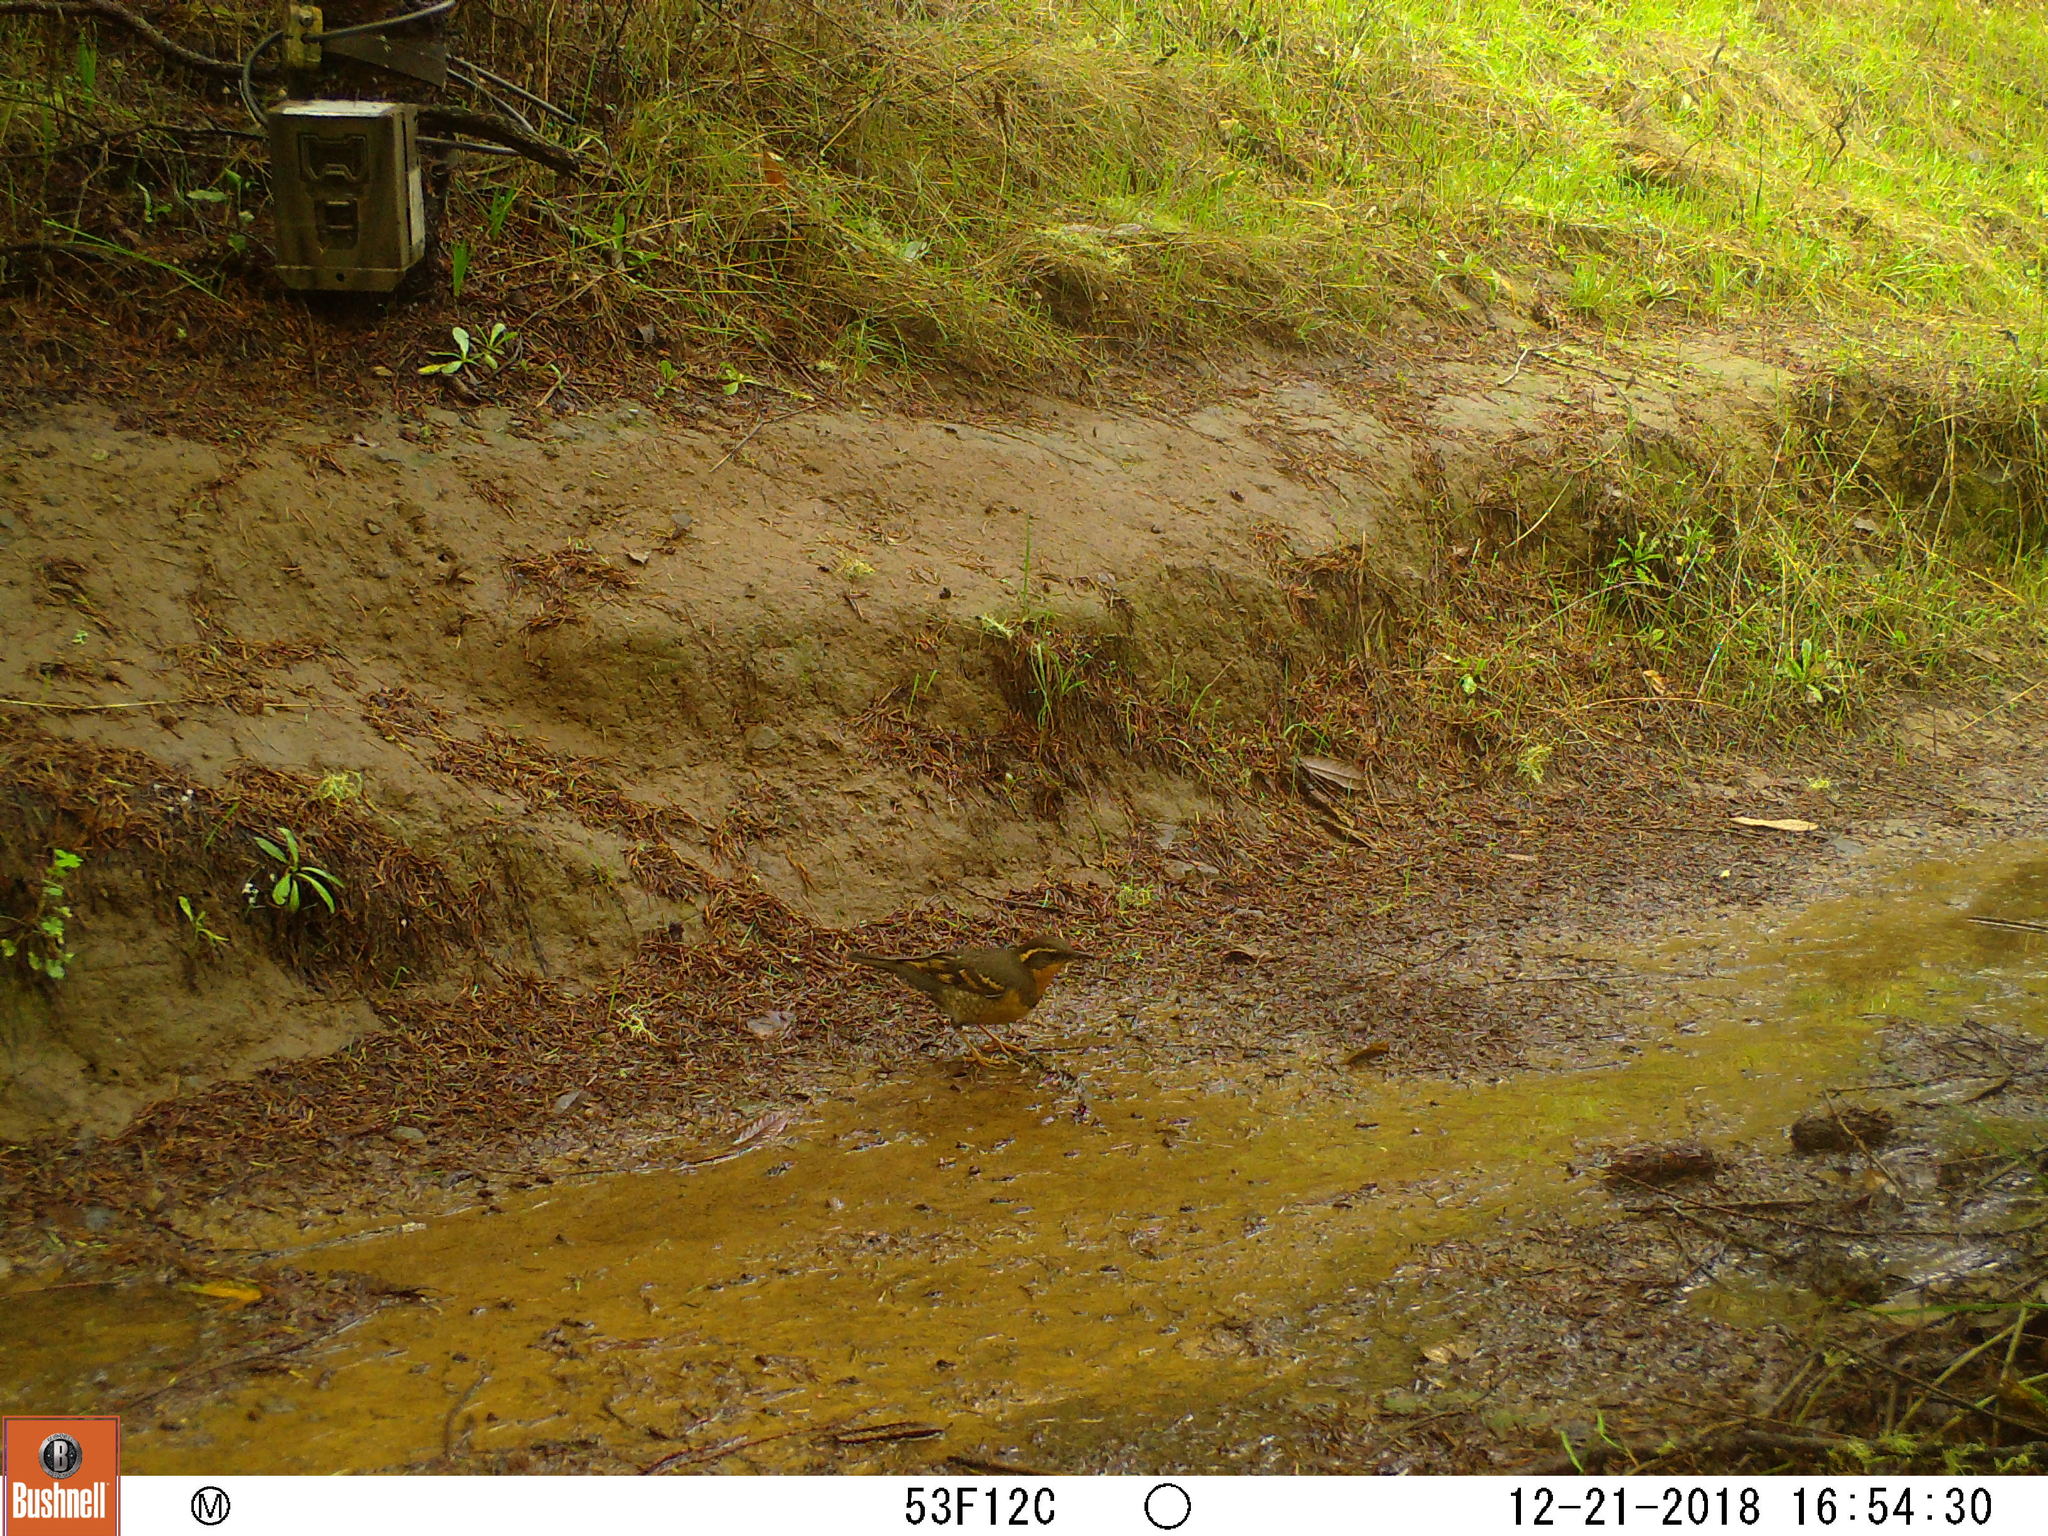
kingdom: Animalia
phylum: Chordata
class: Aves
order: Passeriformes
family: Turdidae
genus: Ixoreus
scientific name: Ixoreus naevius
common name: Varied thrush
